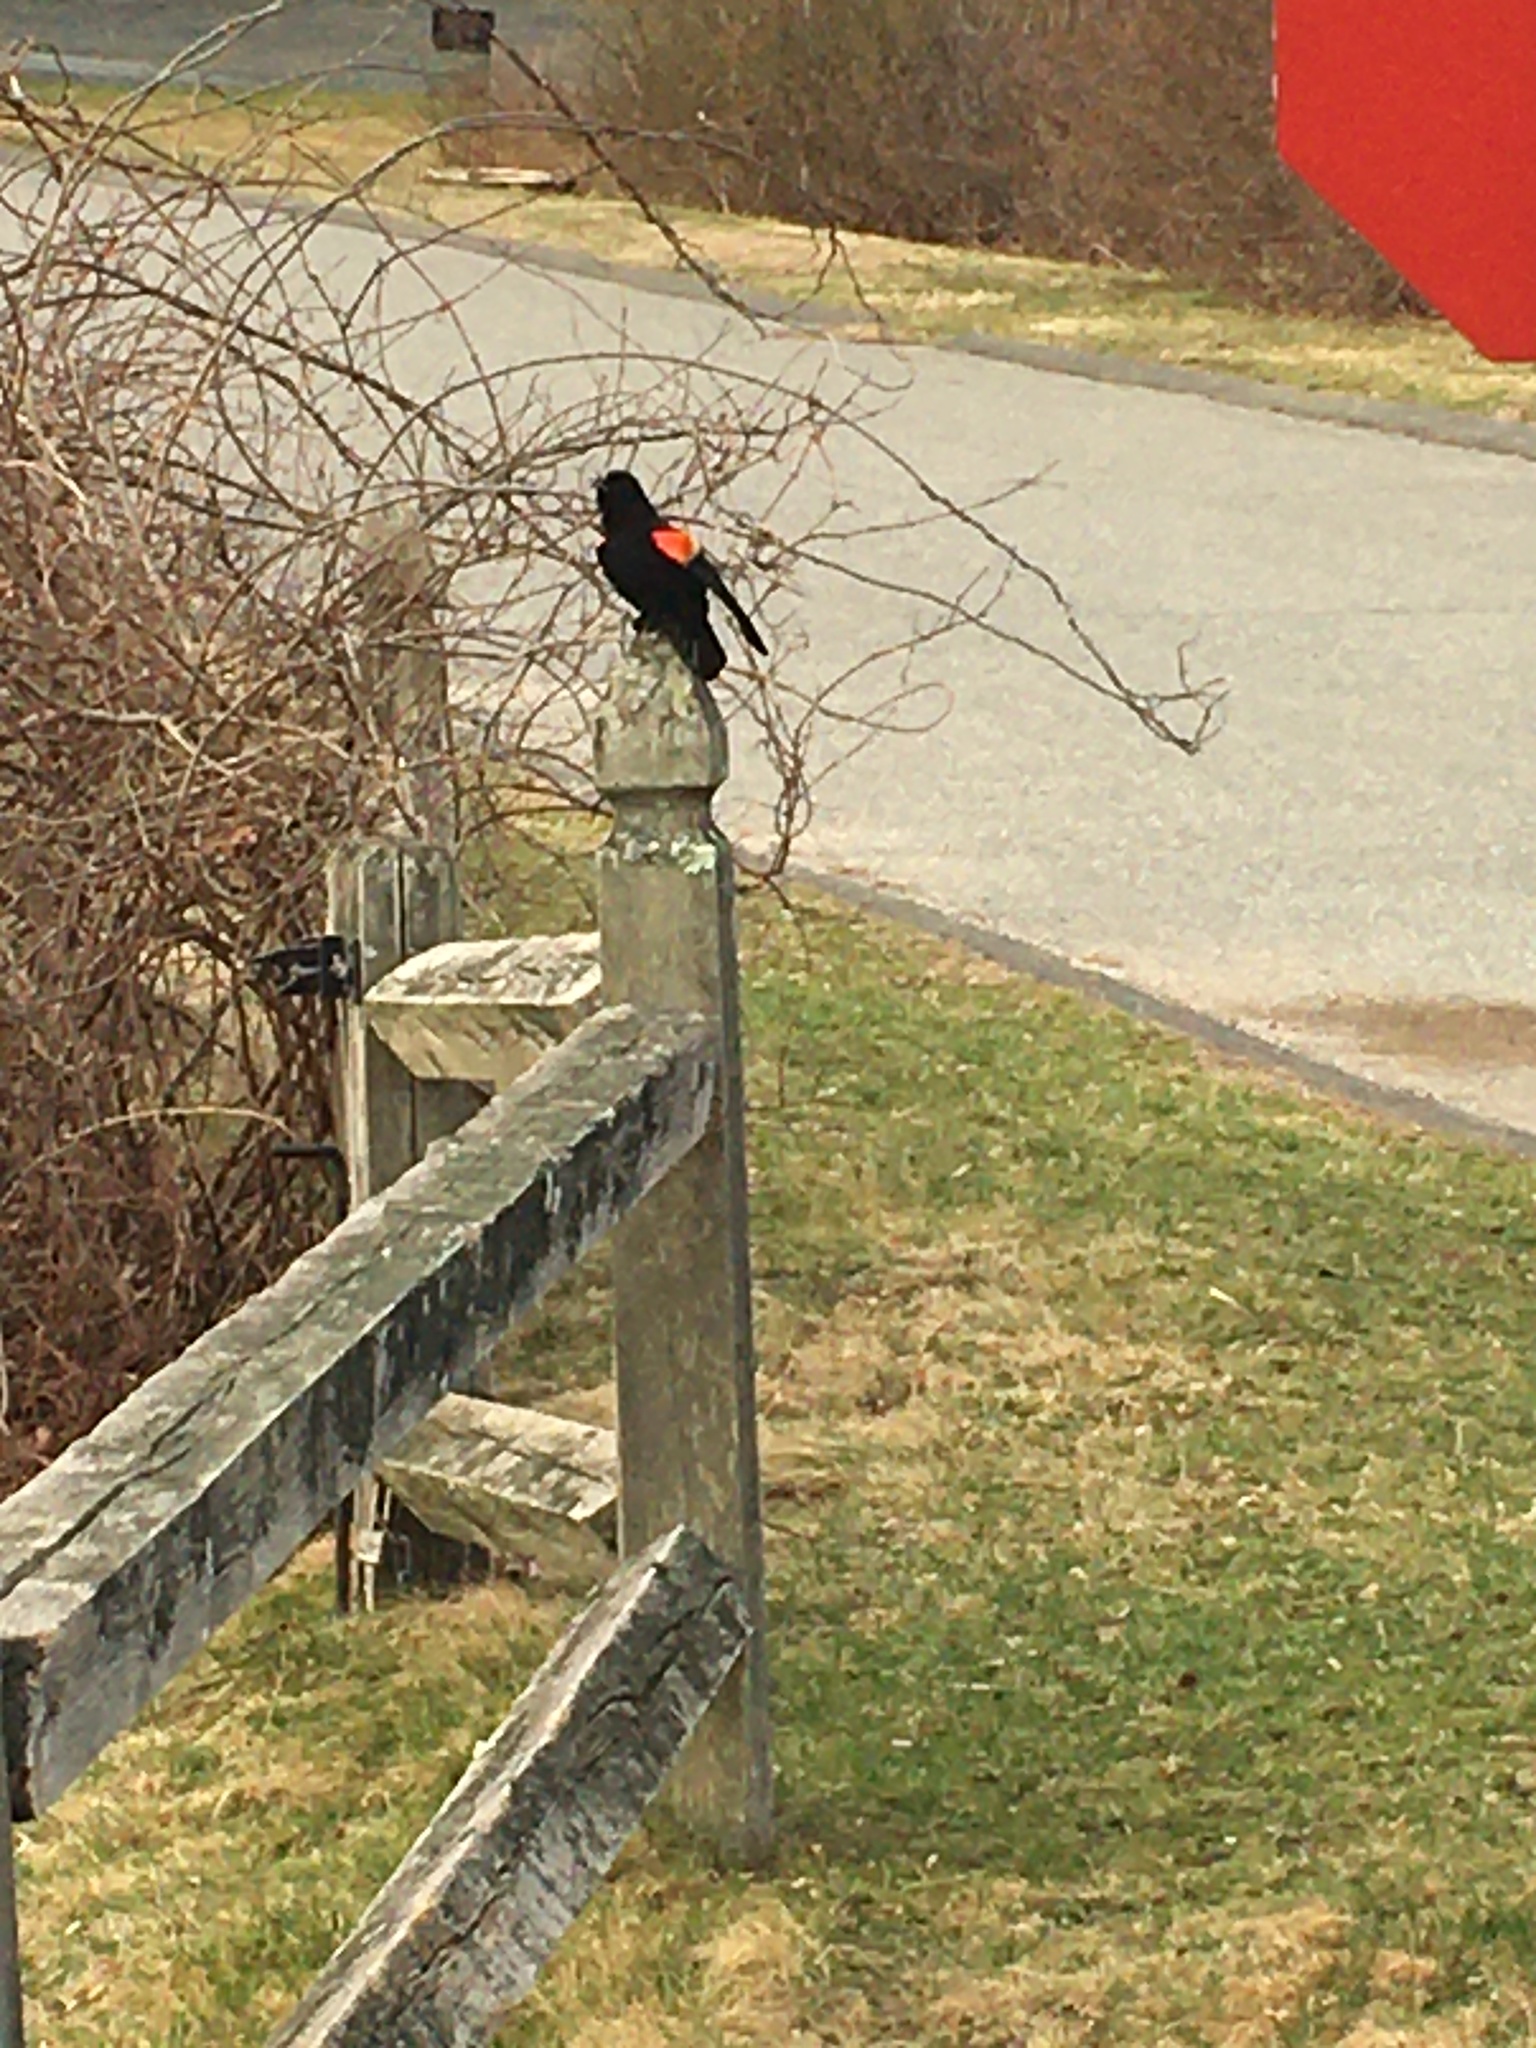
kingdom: Animalia
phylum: Chordata
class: Aves
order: Passeriformes
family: Icteridae
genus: Agelaius
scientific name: Agelaius phoeniceus
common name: Red-winged blackbird
